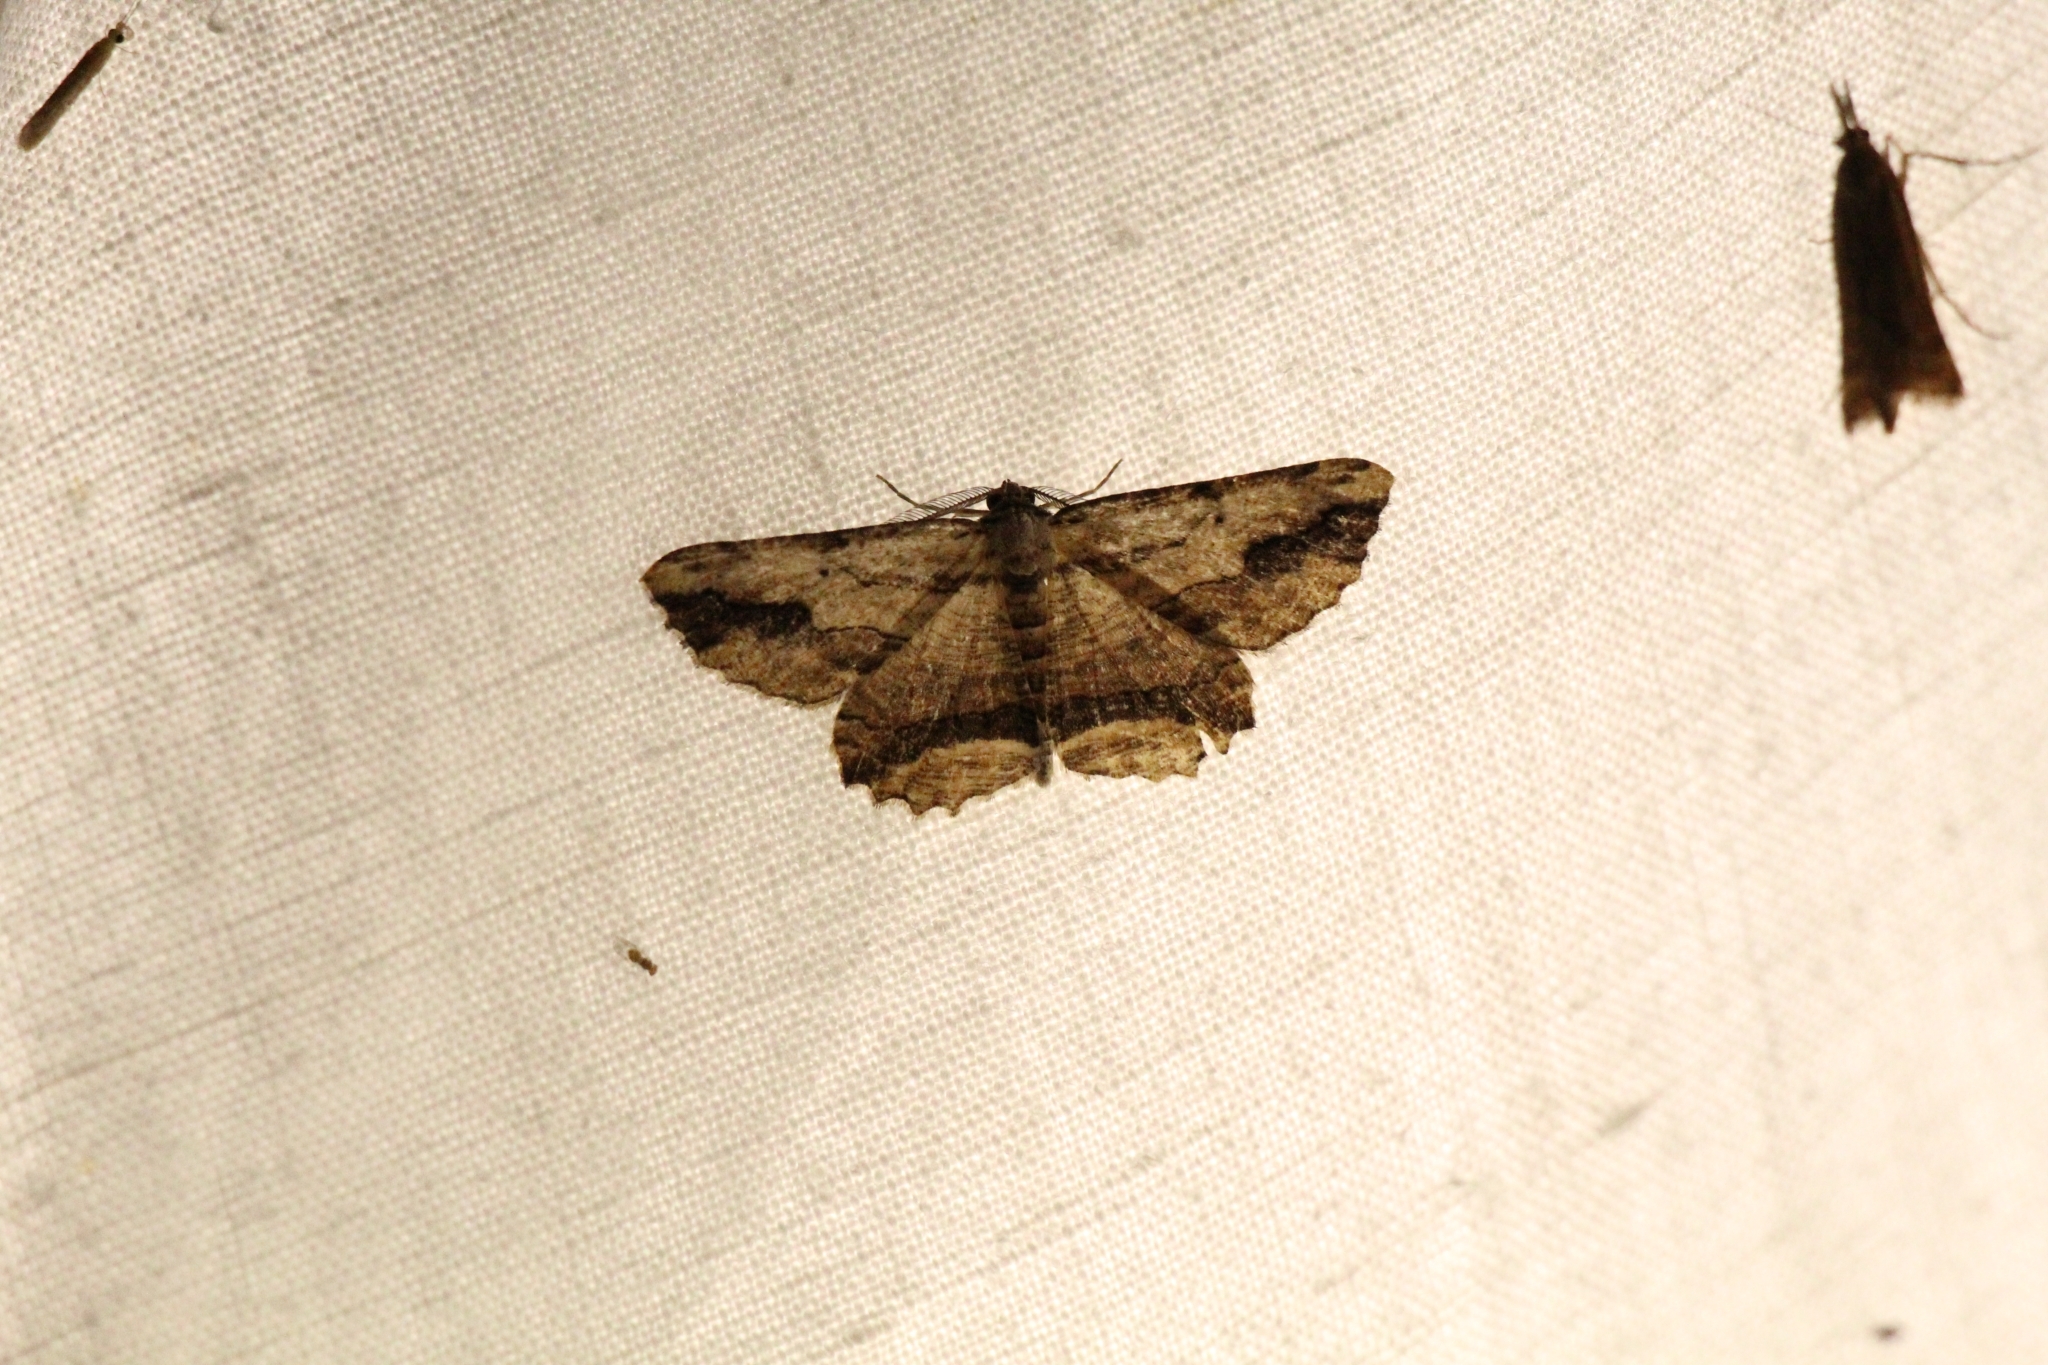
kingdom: Animalia
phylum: Arthropoda
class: Insecta
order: Lepidoptera
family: Geometridae
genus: Menophra
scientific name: Menophra abruptaria
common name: Waved umber
